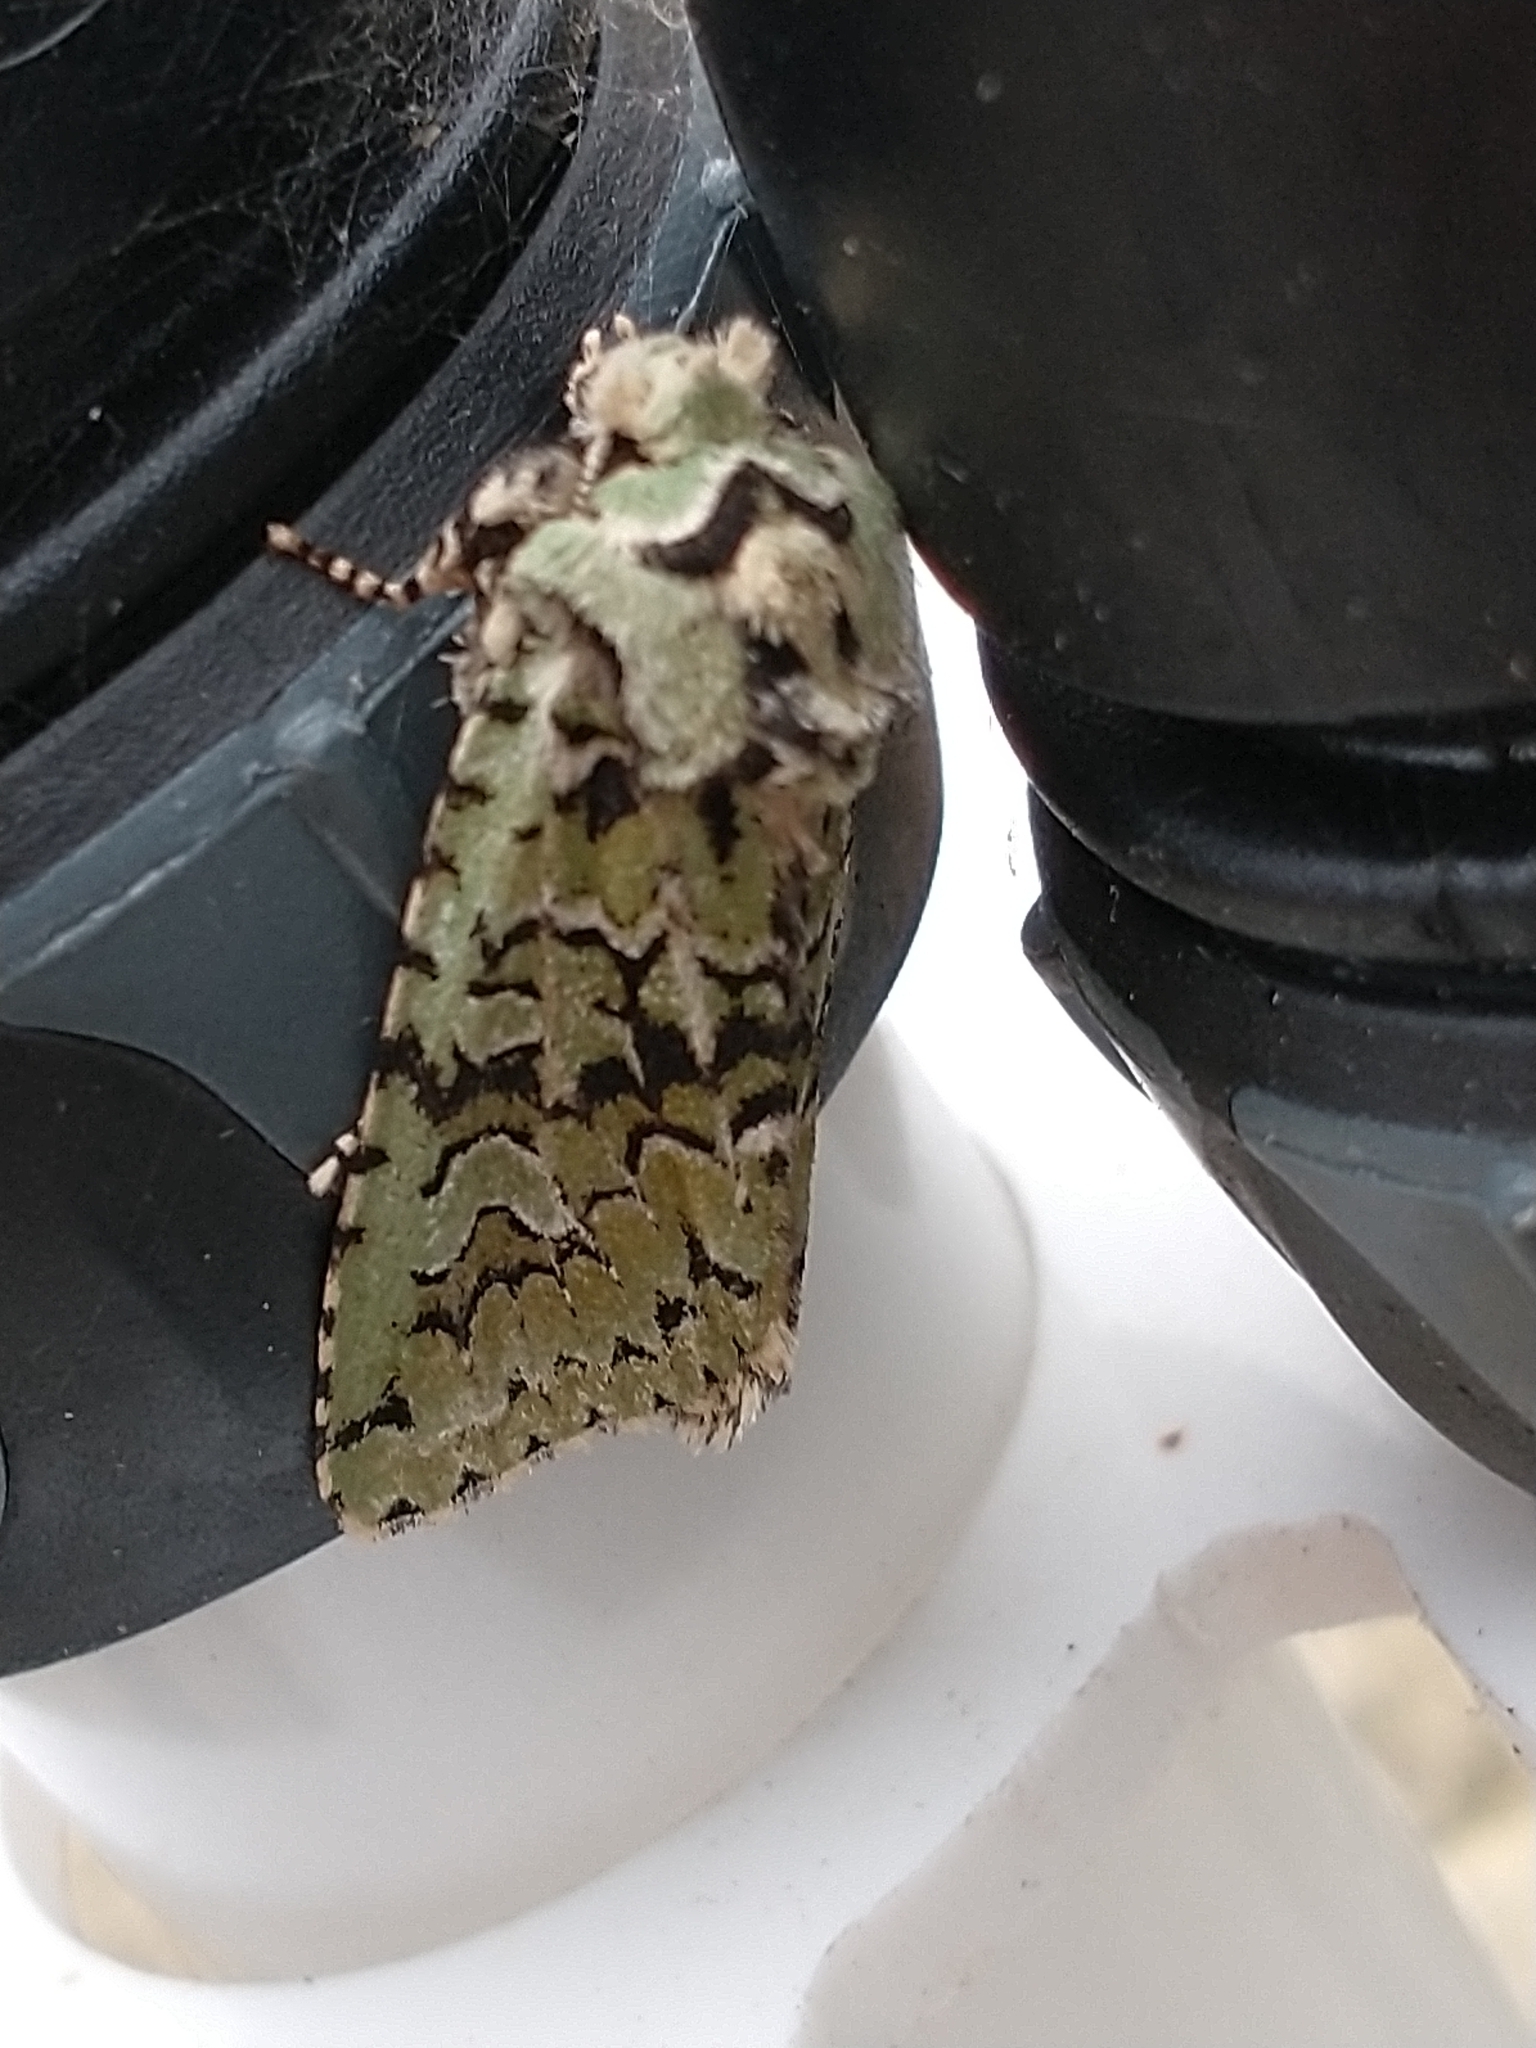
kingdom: Animalia
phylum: Arthropoda
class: Insecta
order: Lepidoptera
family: Noctuidae
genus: Griposia
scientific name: Griposia aprilina
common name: Merveille du jour
